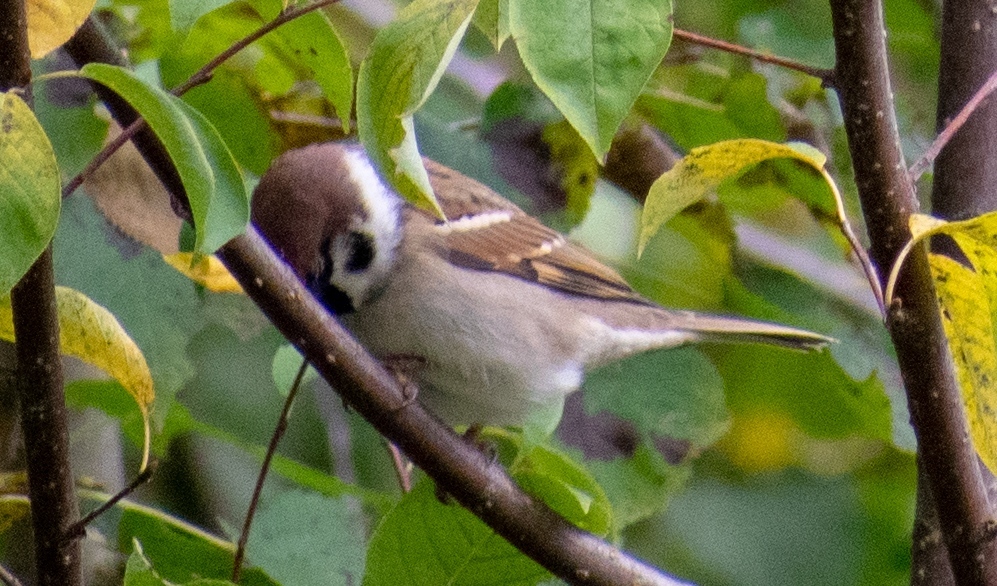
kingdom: Animalia
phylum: Chordata
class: Aves
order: Passeriformes
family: Passeridae
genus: Passer
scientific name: Passer montanus
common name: Eurasian tree sparrow
